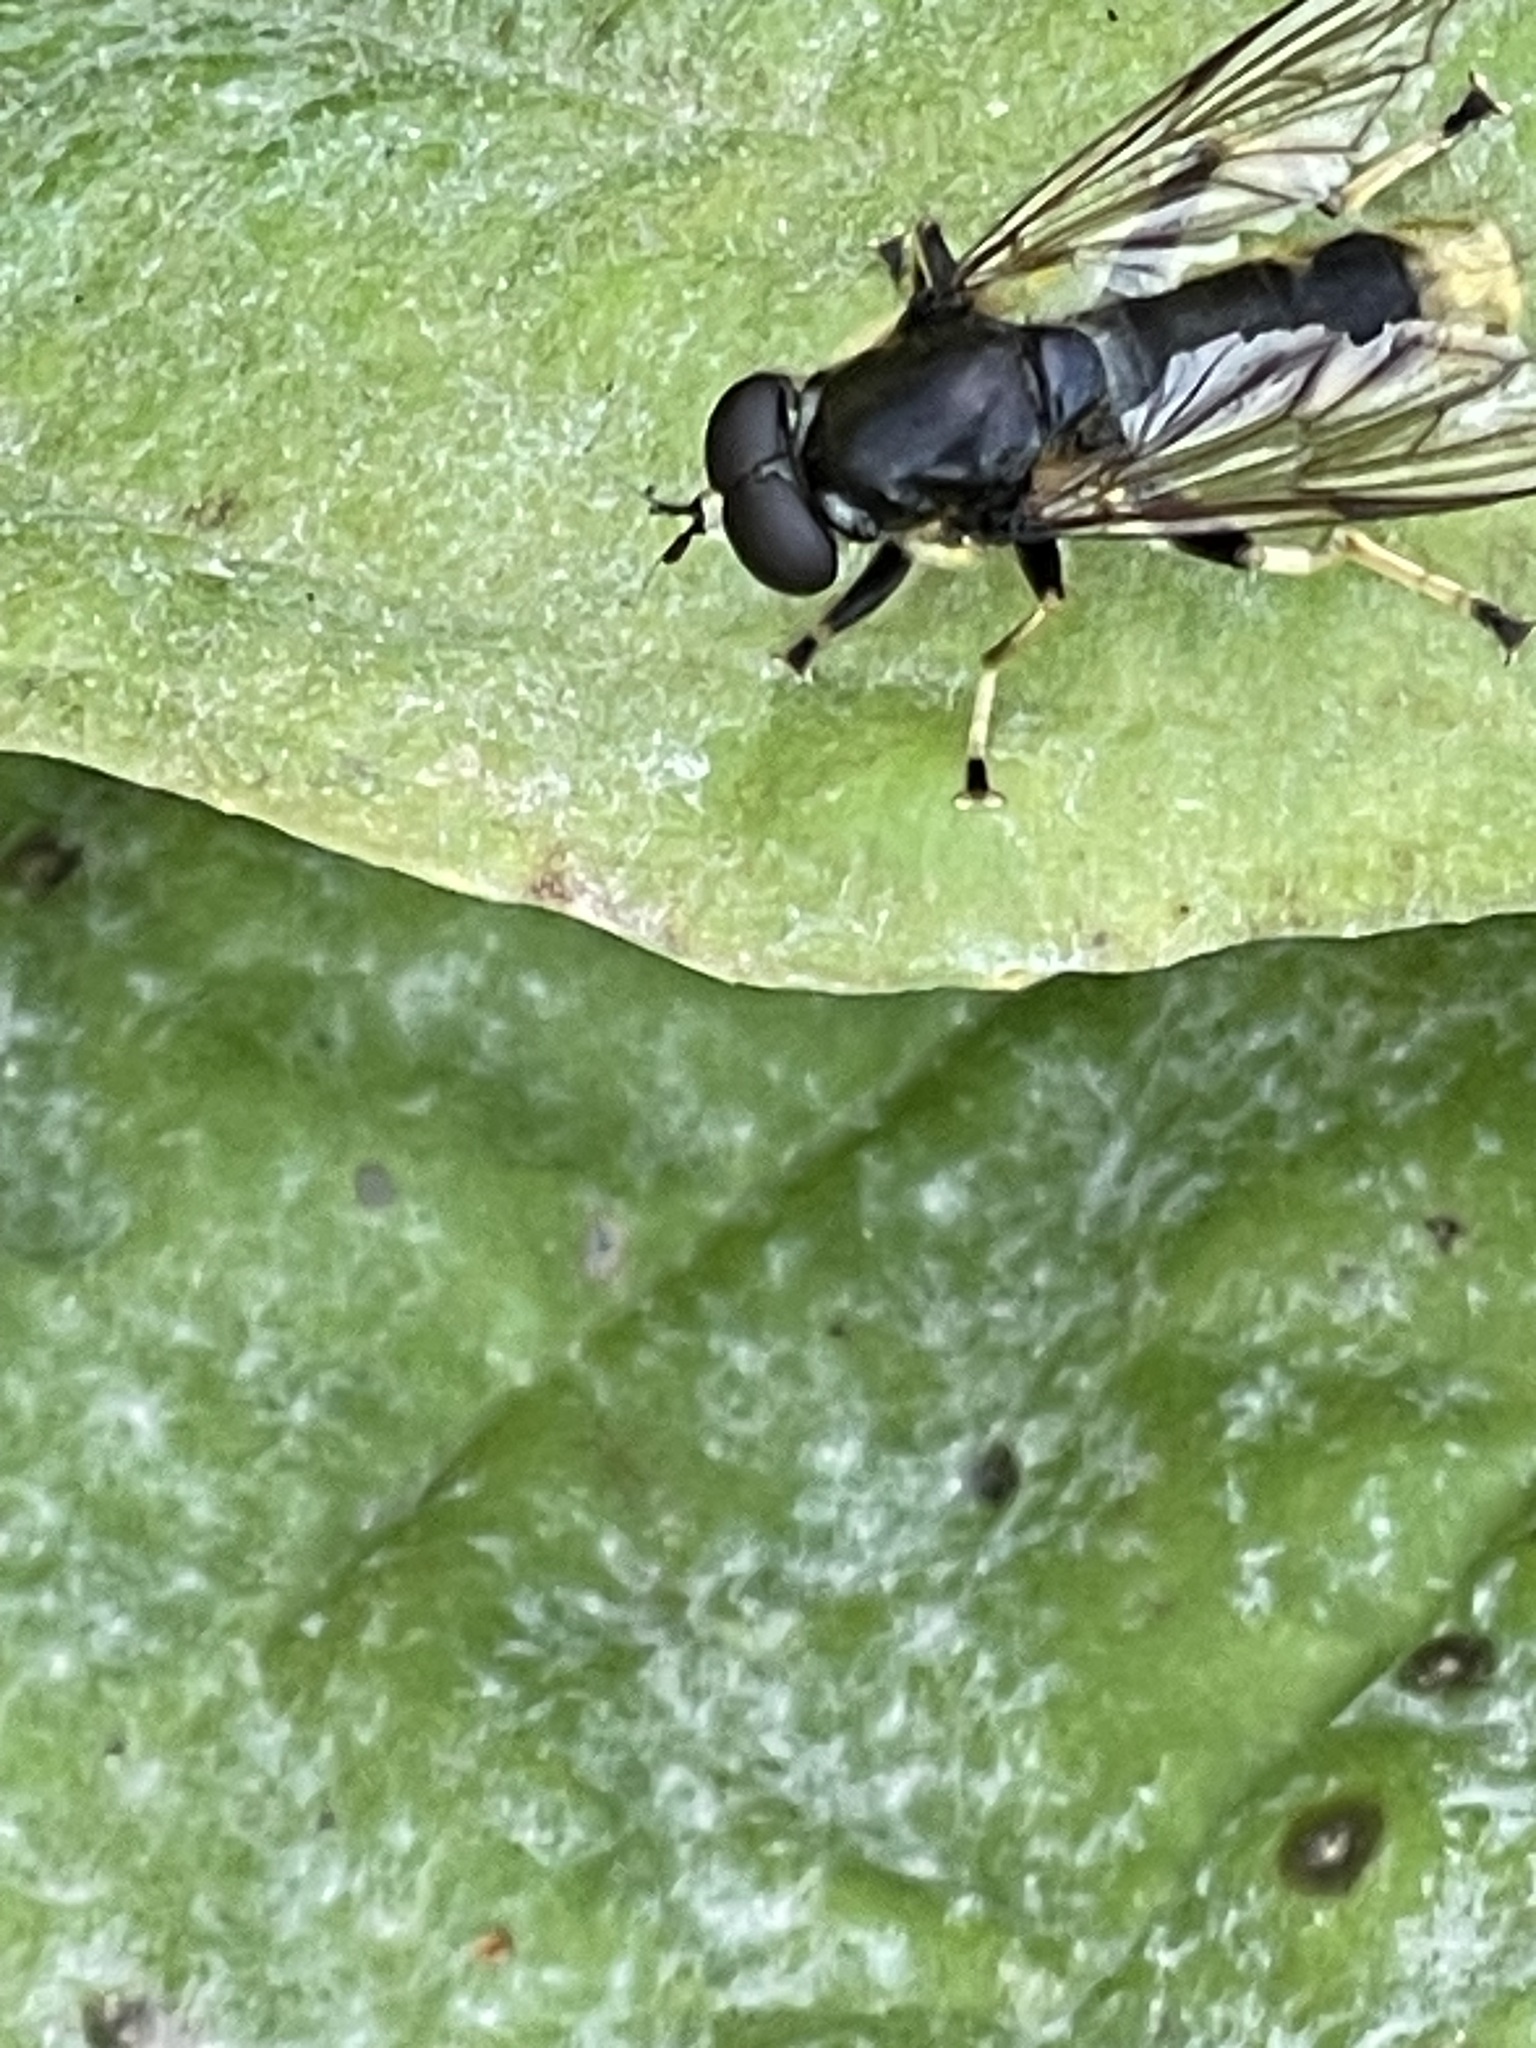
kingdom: Animalia
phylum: Arthropoda
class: Insecta
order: Diptera
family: Syrphidae
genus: Xylota
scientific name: Xylota sylvarum
